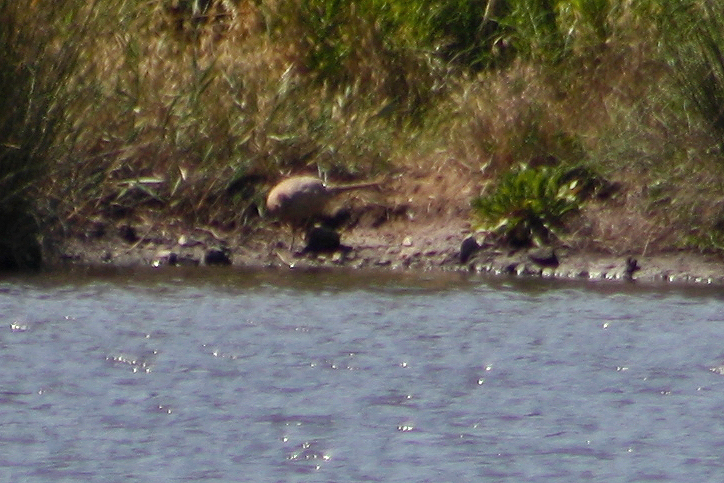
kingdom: Animalia
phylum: Chordata
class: Aves
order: Galliformes
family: Phasianidae
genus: Phasianus
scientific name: Phasianus colchicus
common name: Common pheasant
